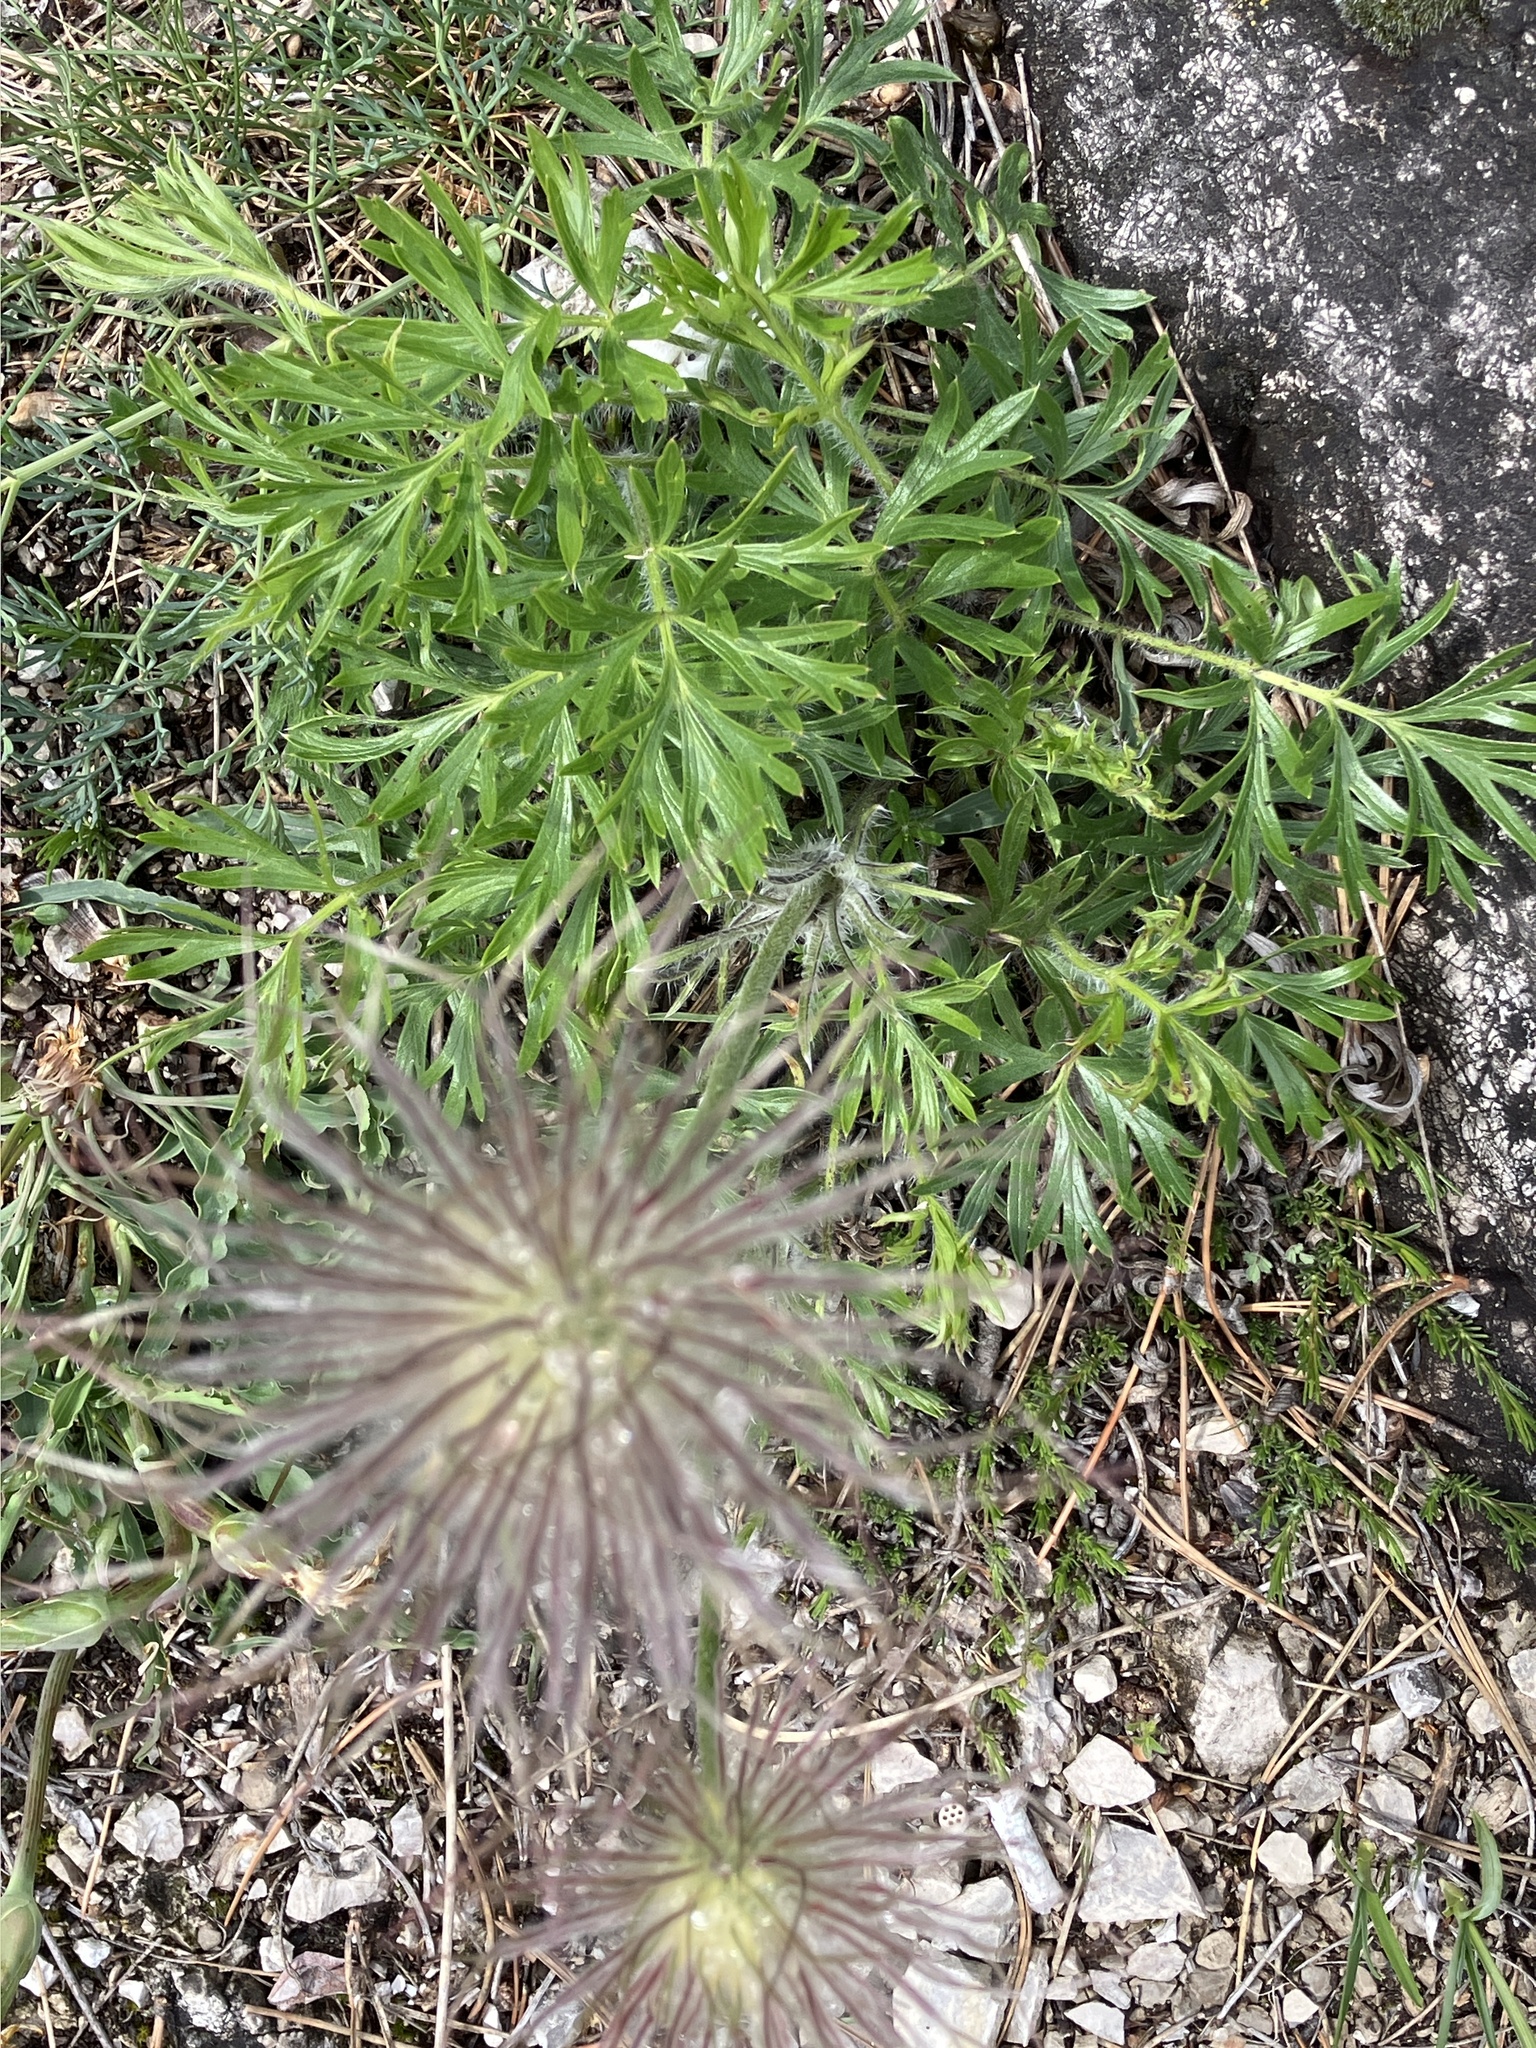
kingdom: Plantae
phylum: Tracheophyta
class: Magnoliopsida
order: Ranunculales
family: Ranunculaceae
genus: Pulsatilla
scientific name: Pulsatilla grandis
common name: Greater pasque flower
